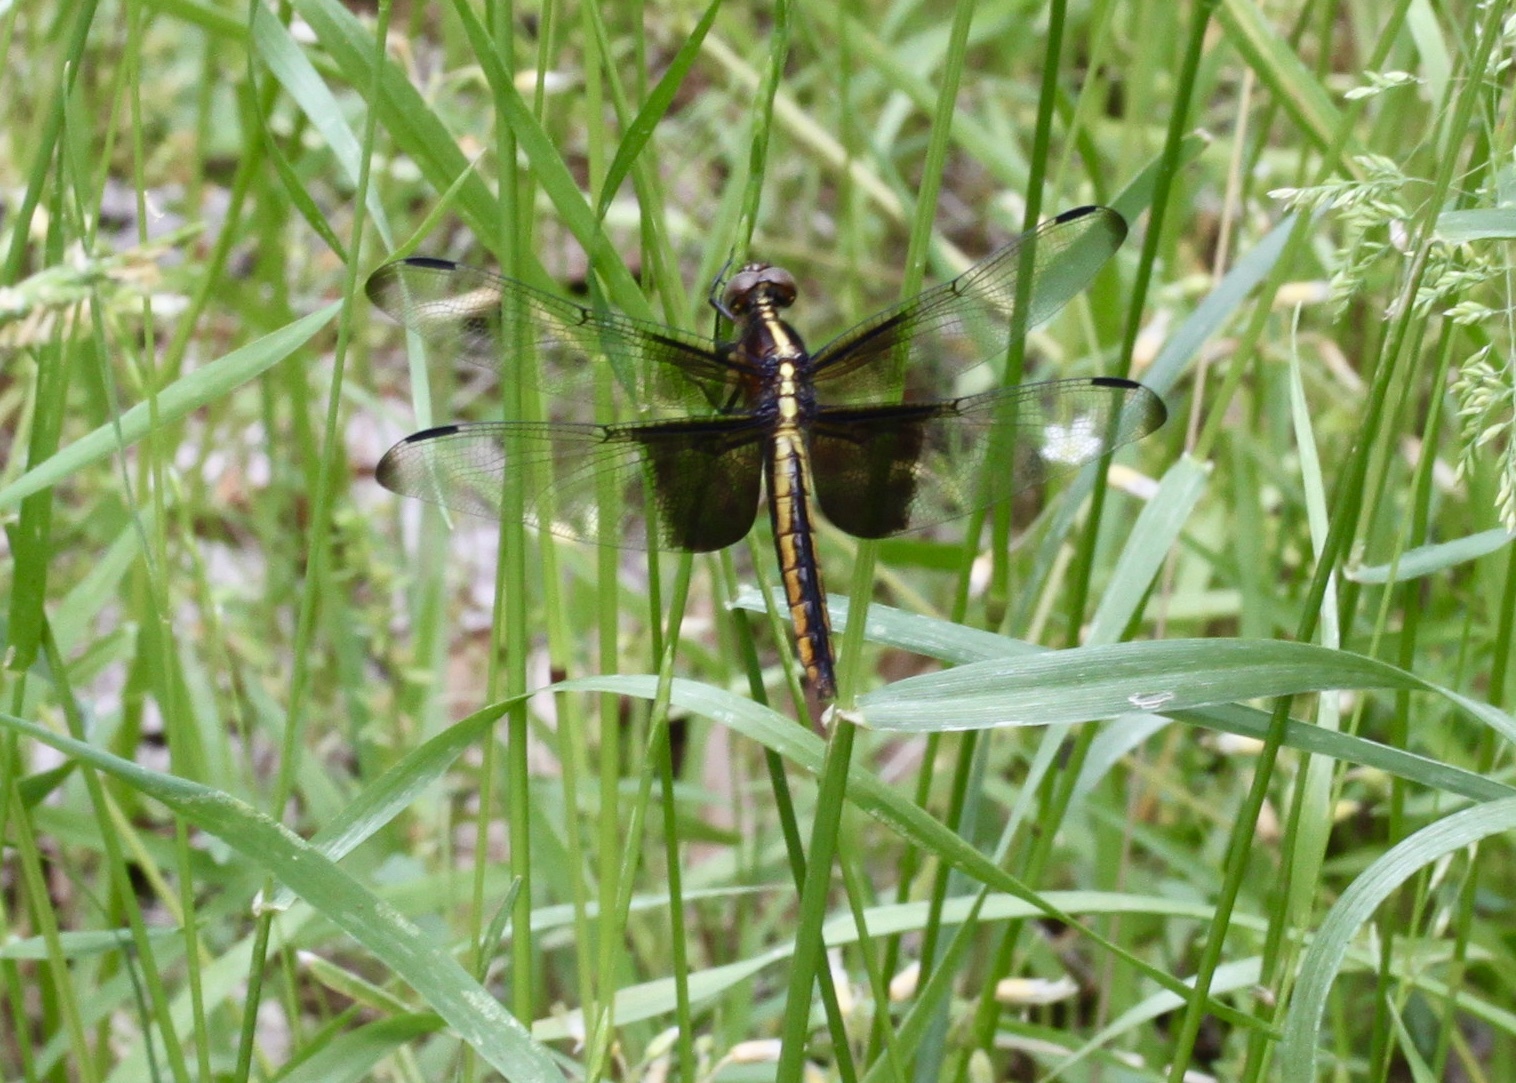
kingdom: Animalia
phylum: Arthropoda
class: Insecta
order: Odonata
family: Libellulidae
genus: Libellula
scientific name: Libellula luctuosa
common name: Widow skimmer
